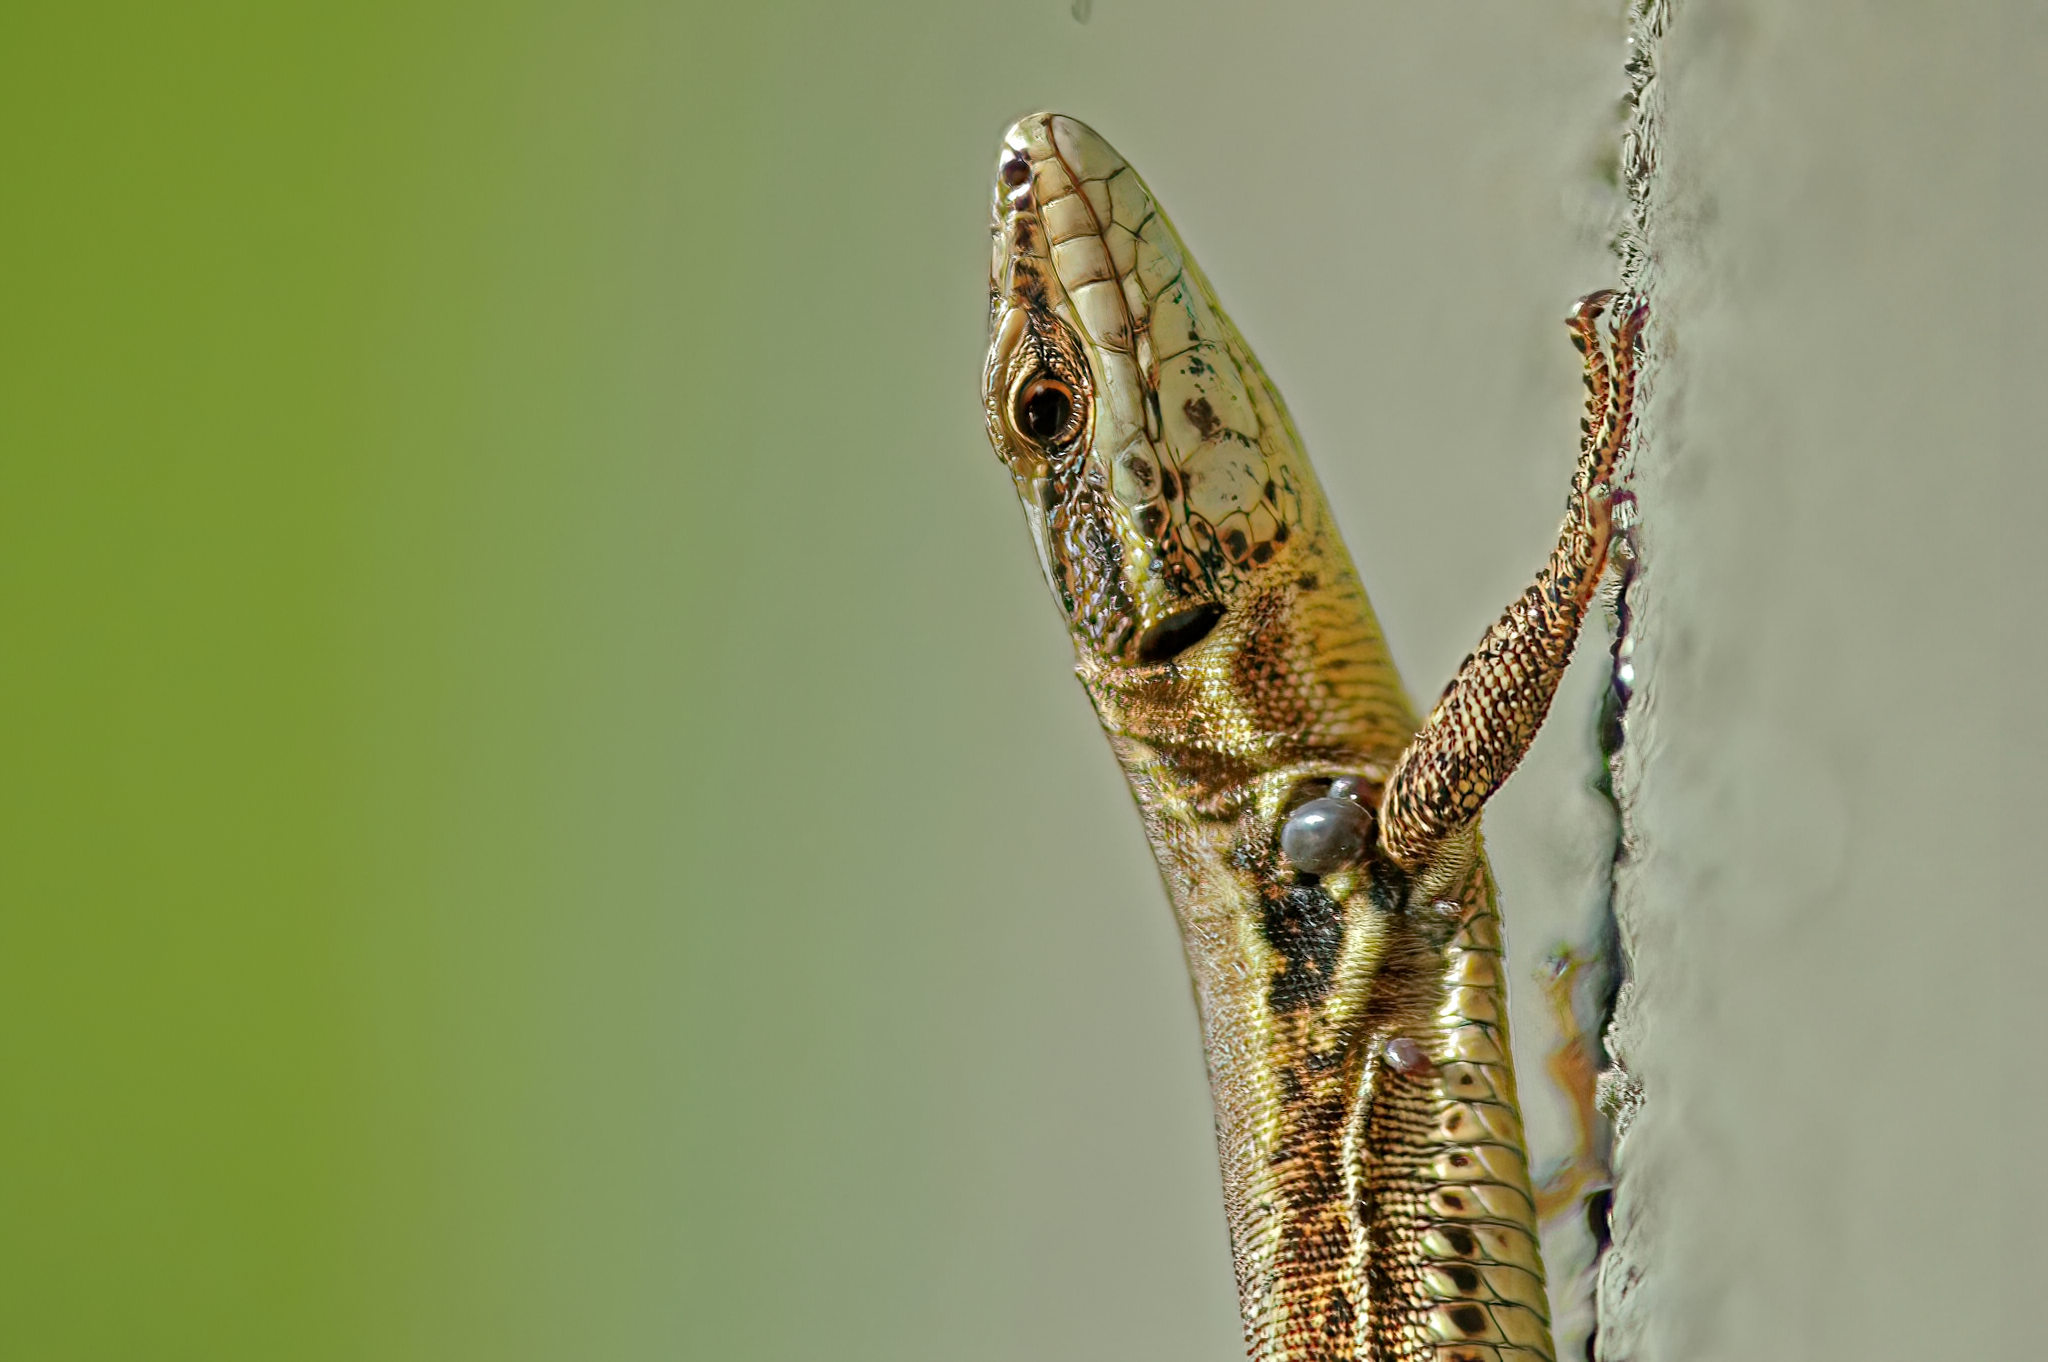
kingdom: Animalia
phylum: Chordata
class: Squamata
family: Lacertidae
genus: Podarcis
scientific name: Podarcis muralis
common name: Common wall lizard
